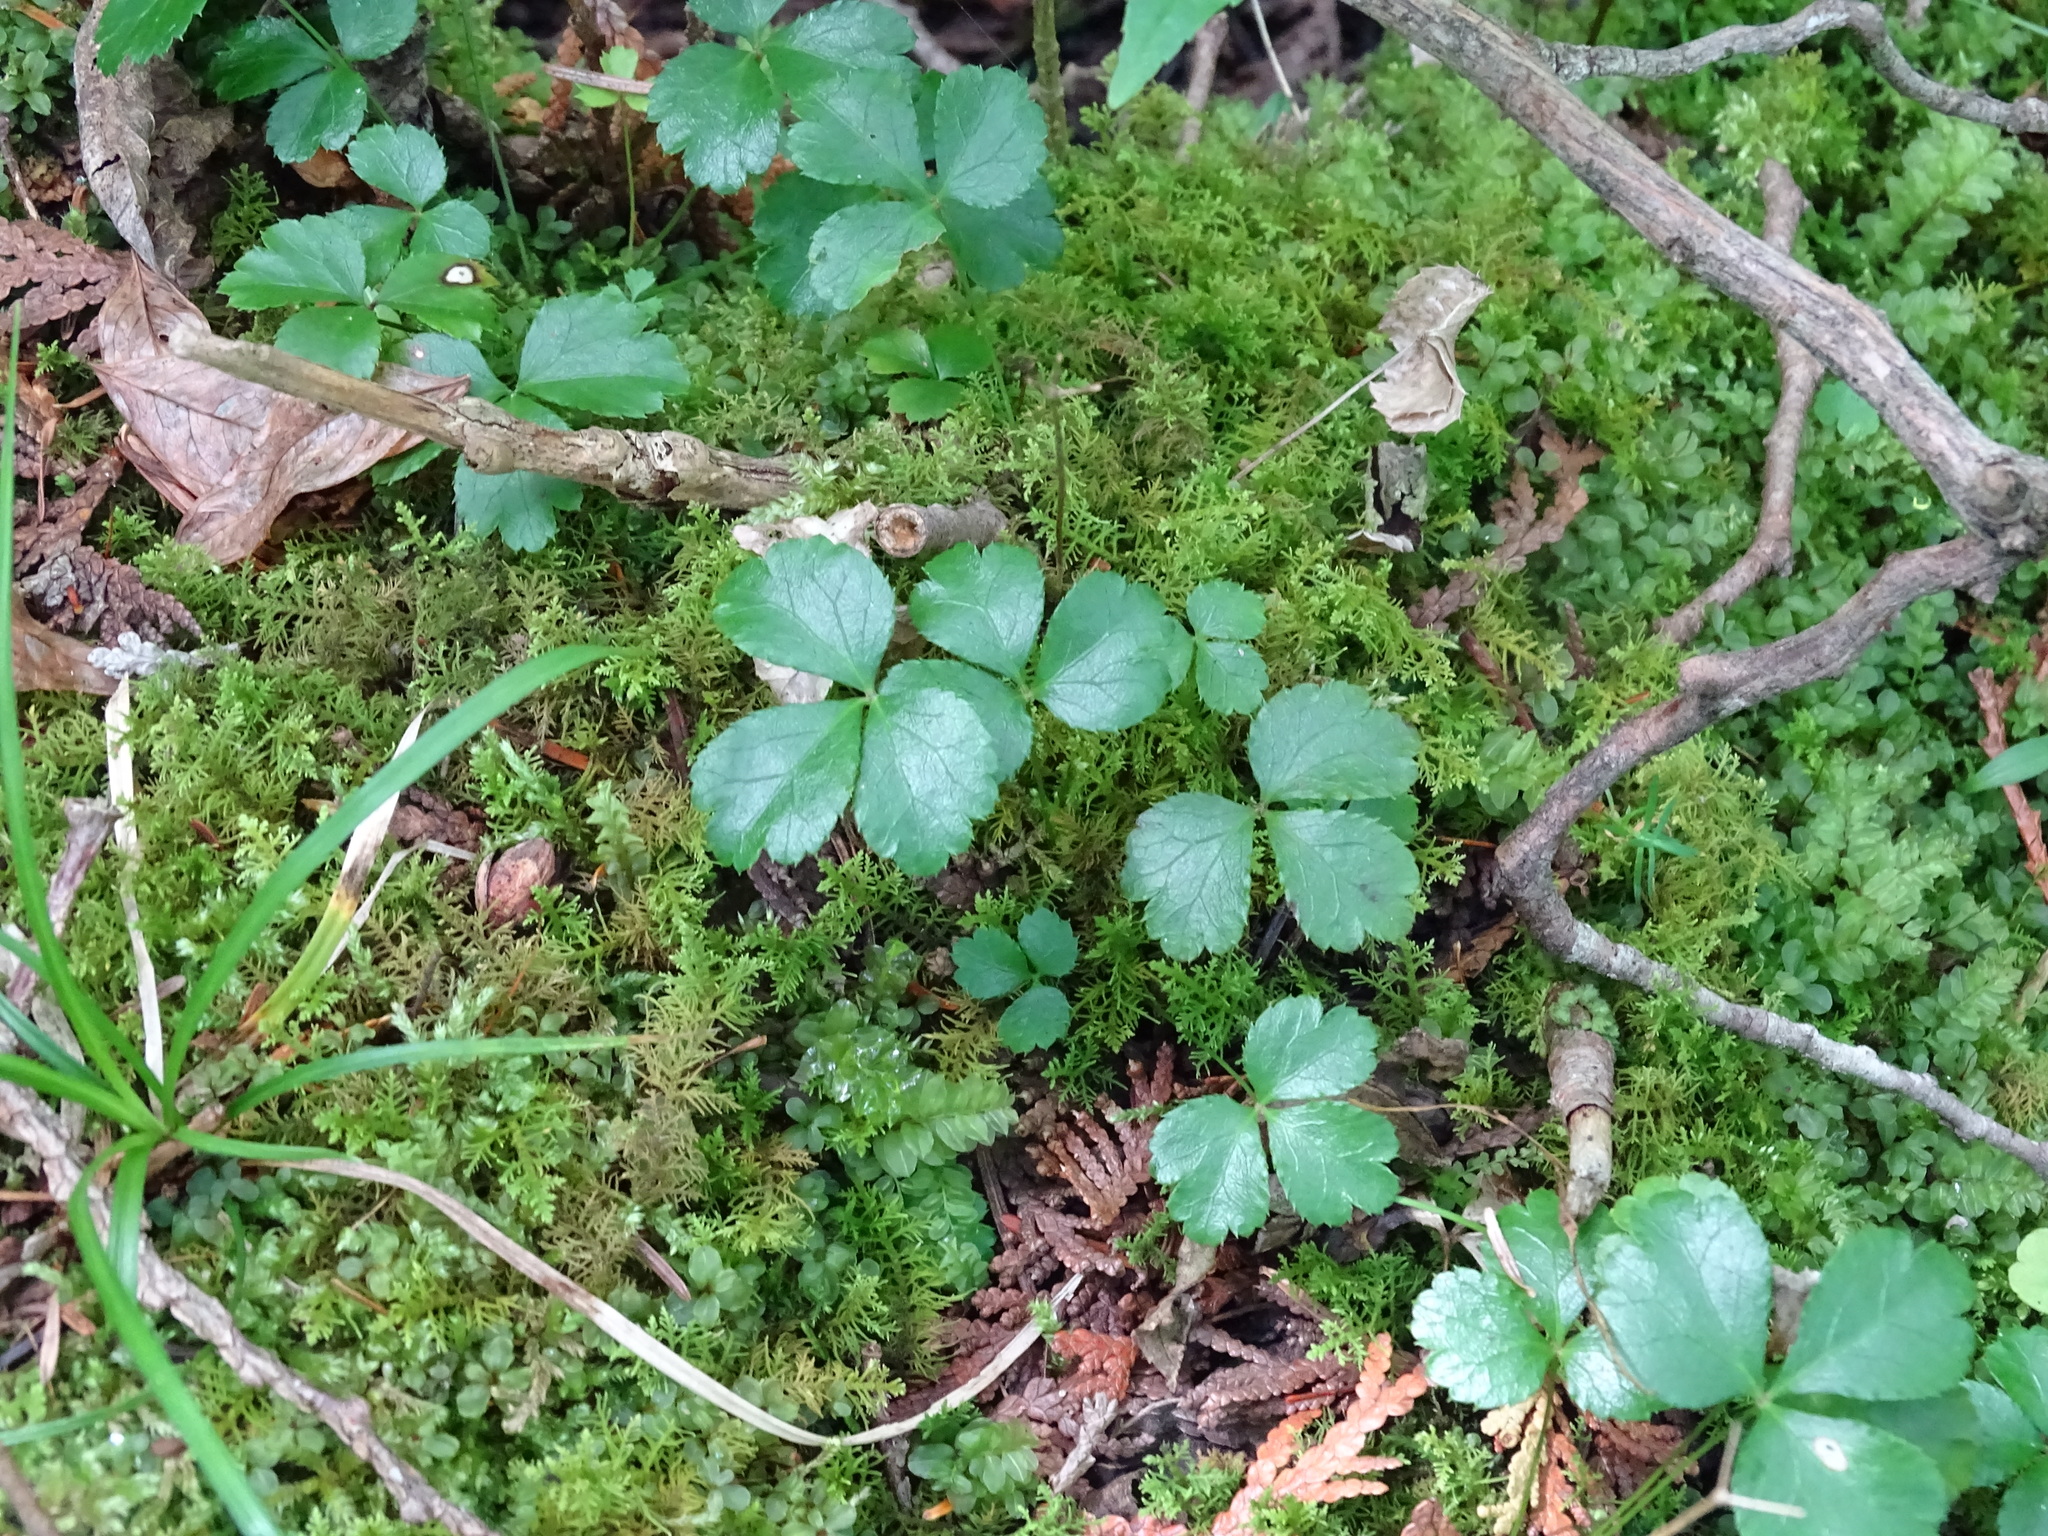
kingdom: Plantae
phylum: Tracheophyta
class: Magnoliopsida
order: Ranunculales
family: Ranunculaceae
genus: Coptis
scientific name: Coptis trifolia
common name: Canker-root
